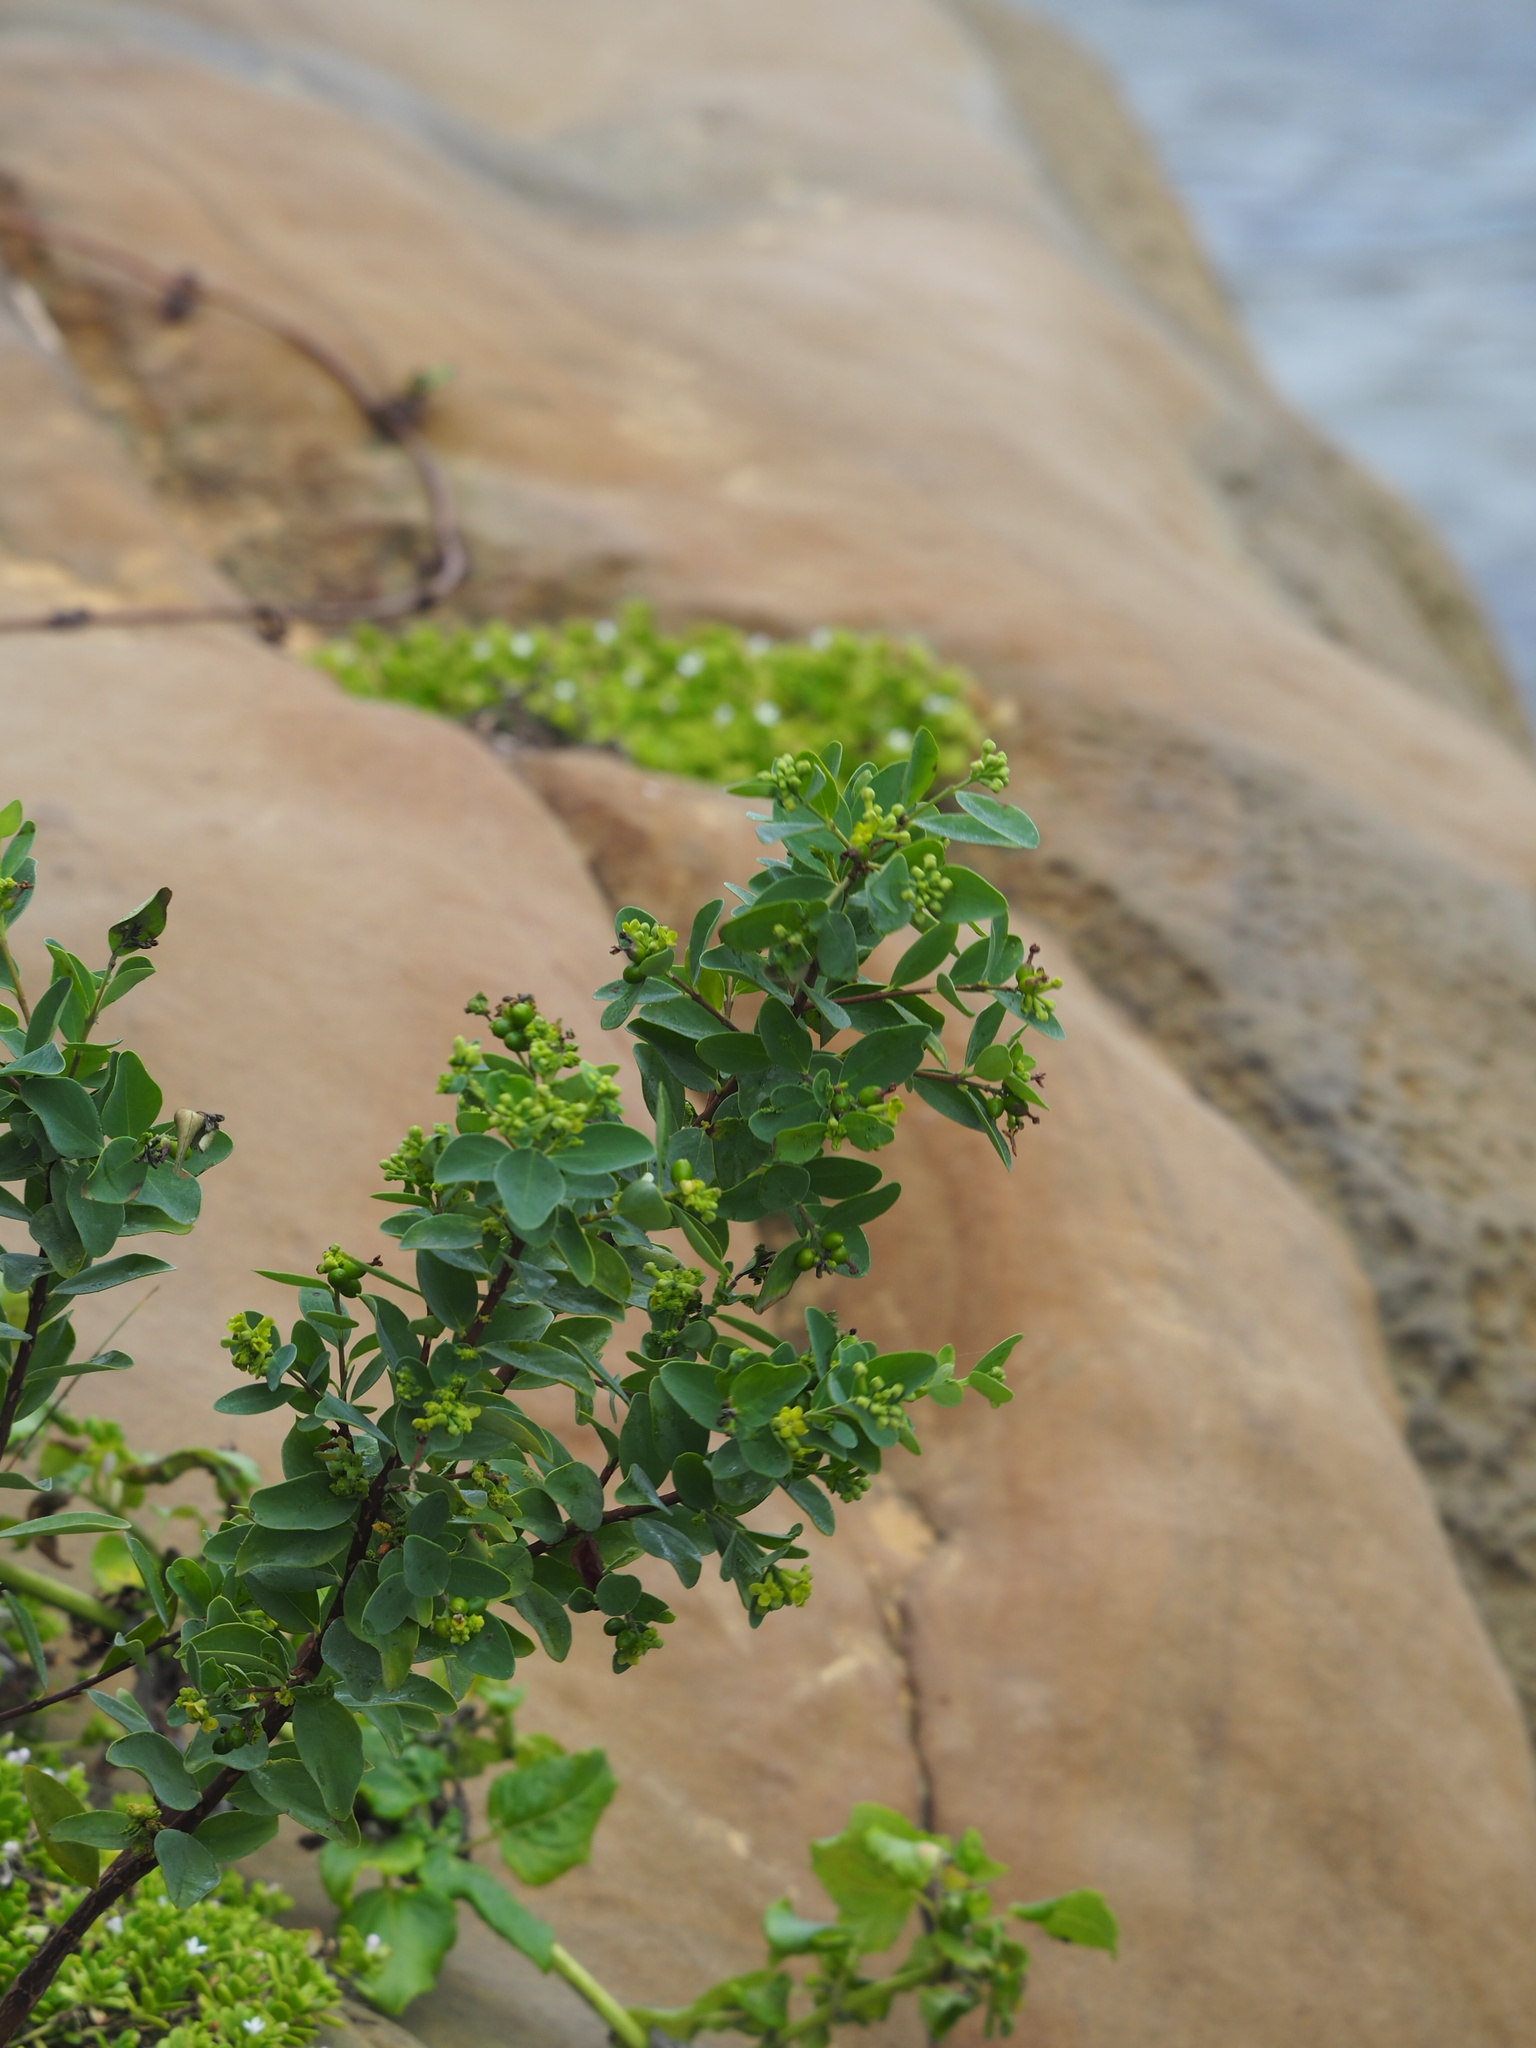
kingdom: Plantae
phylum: Tracheophyta
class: Magnoliopsida
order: Malvales
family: Thymelaeaceae
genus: Wikstroemia
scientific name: Wikstroemia indica
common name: Tiebush
